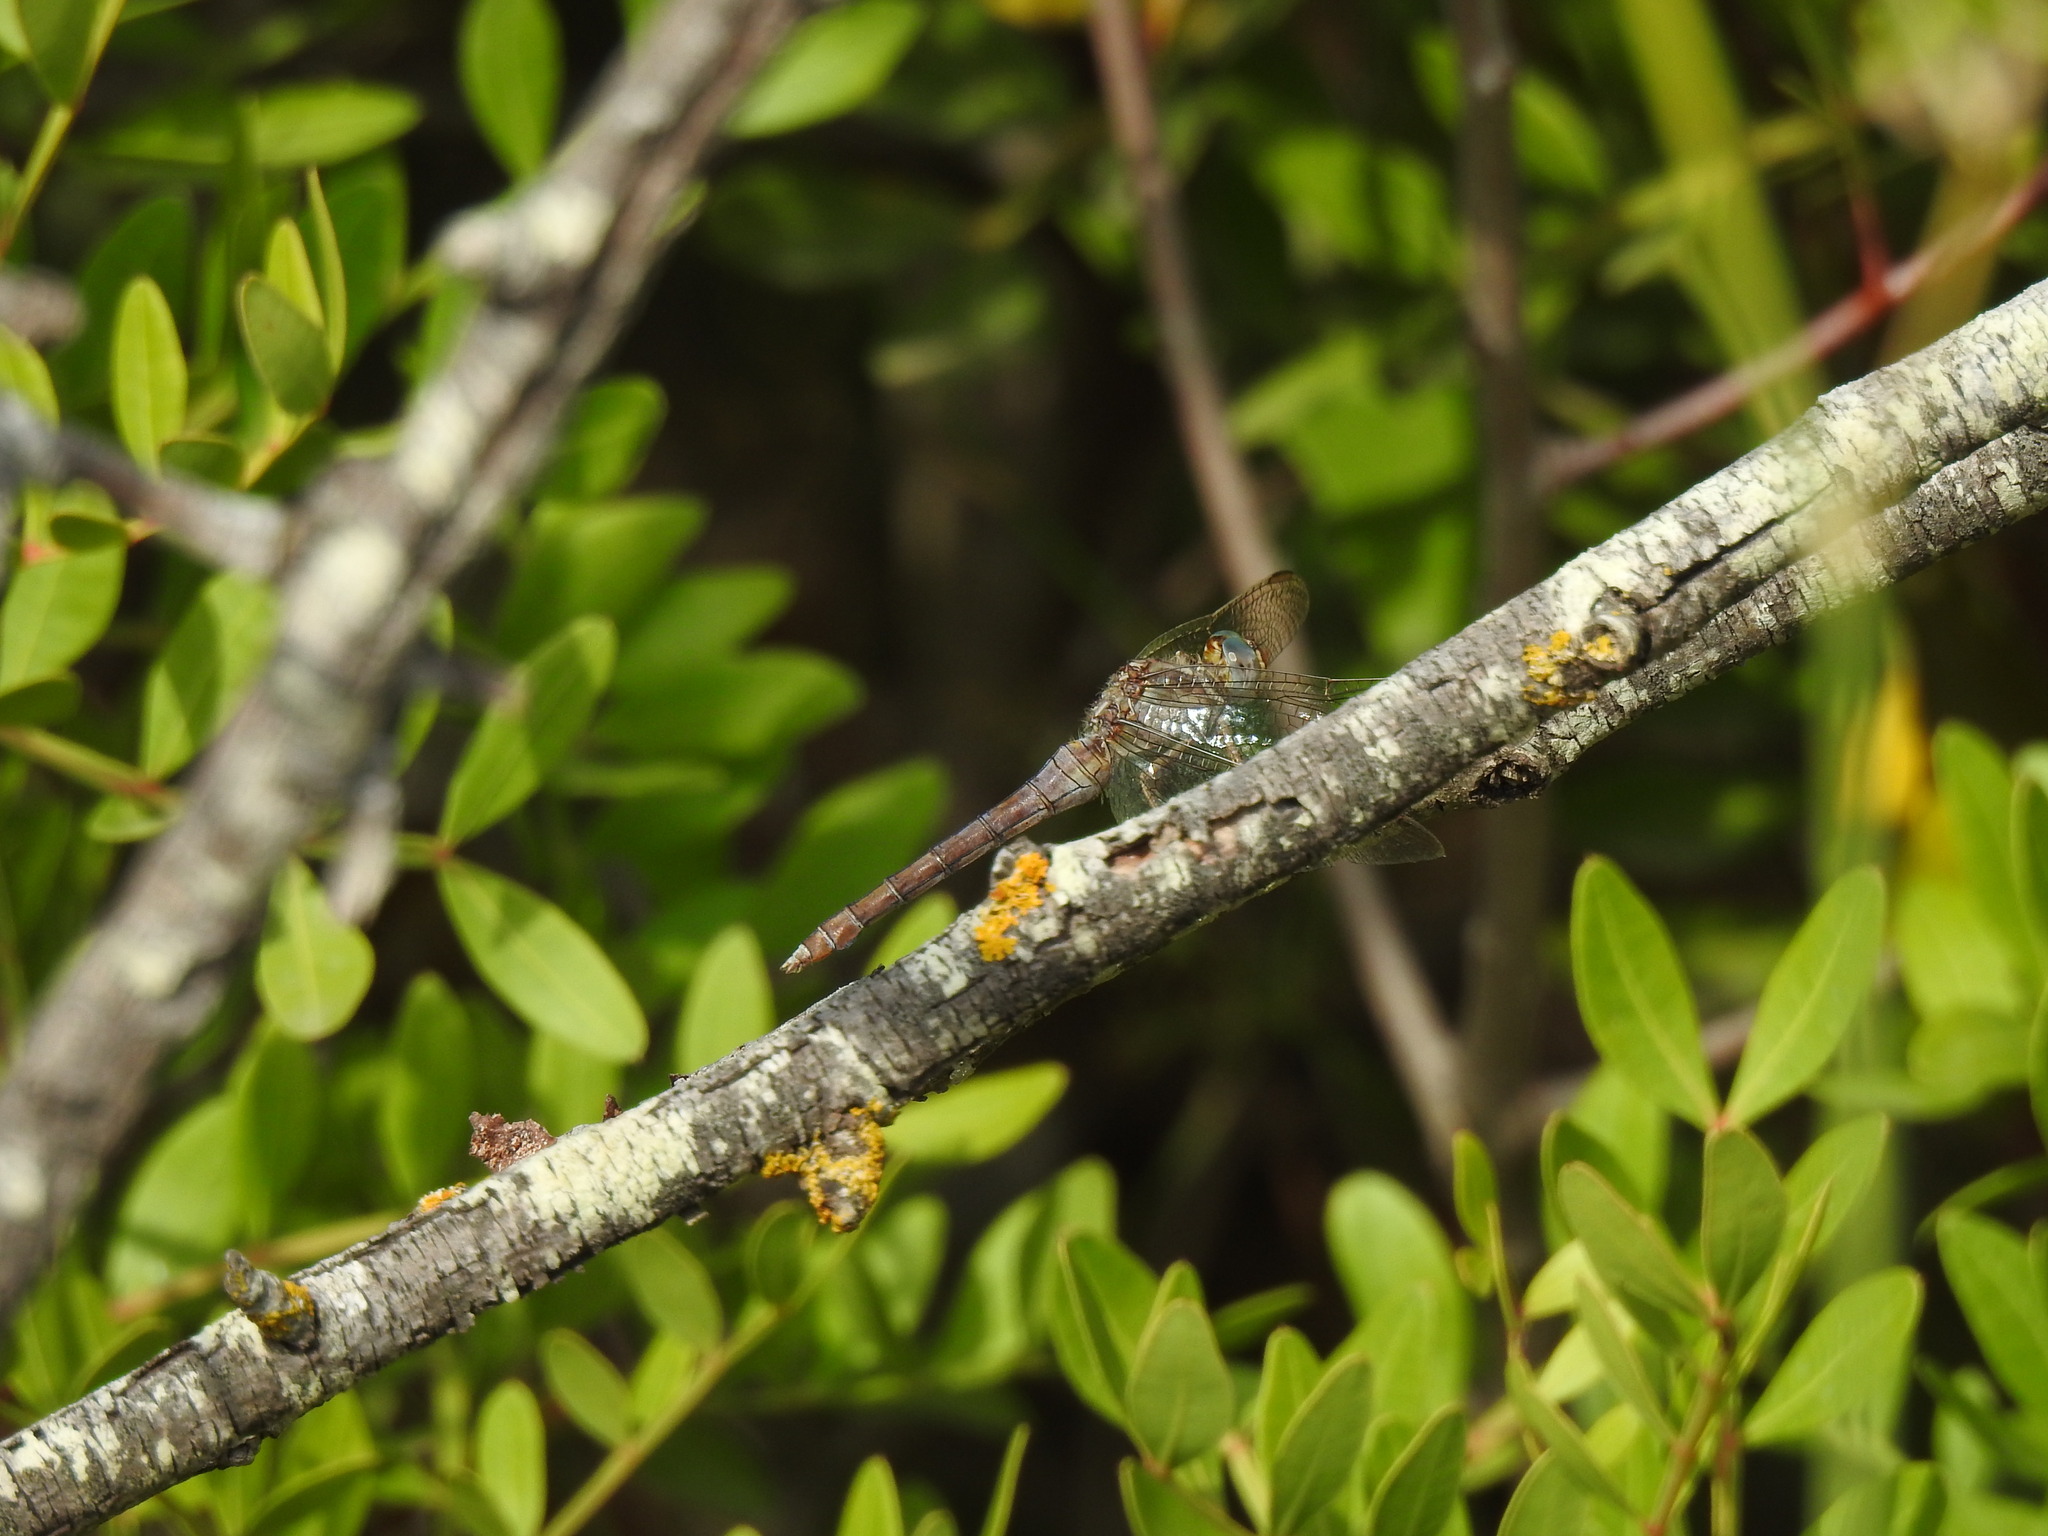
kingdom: Animalia
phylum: Arthropoda
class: Insecta
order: Odonata
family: Libellulidae
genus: Orthetrum
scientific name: Orthetrum coerulescens
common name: Keeled skimmer
